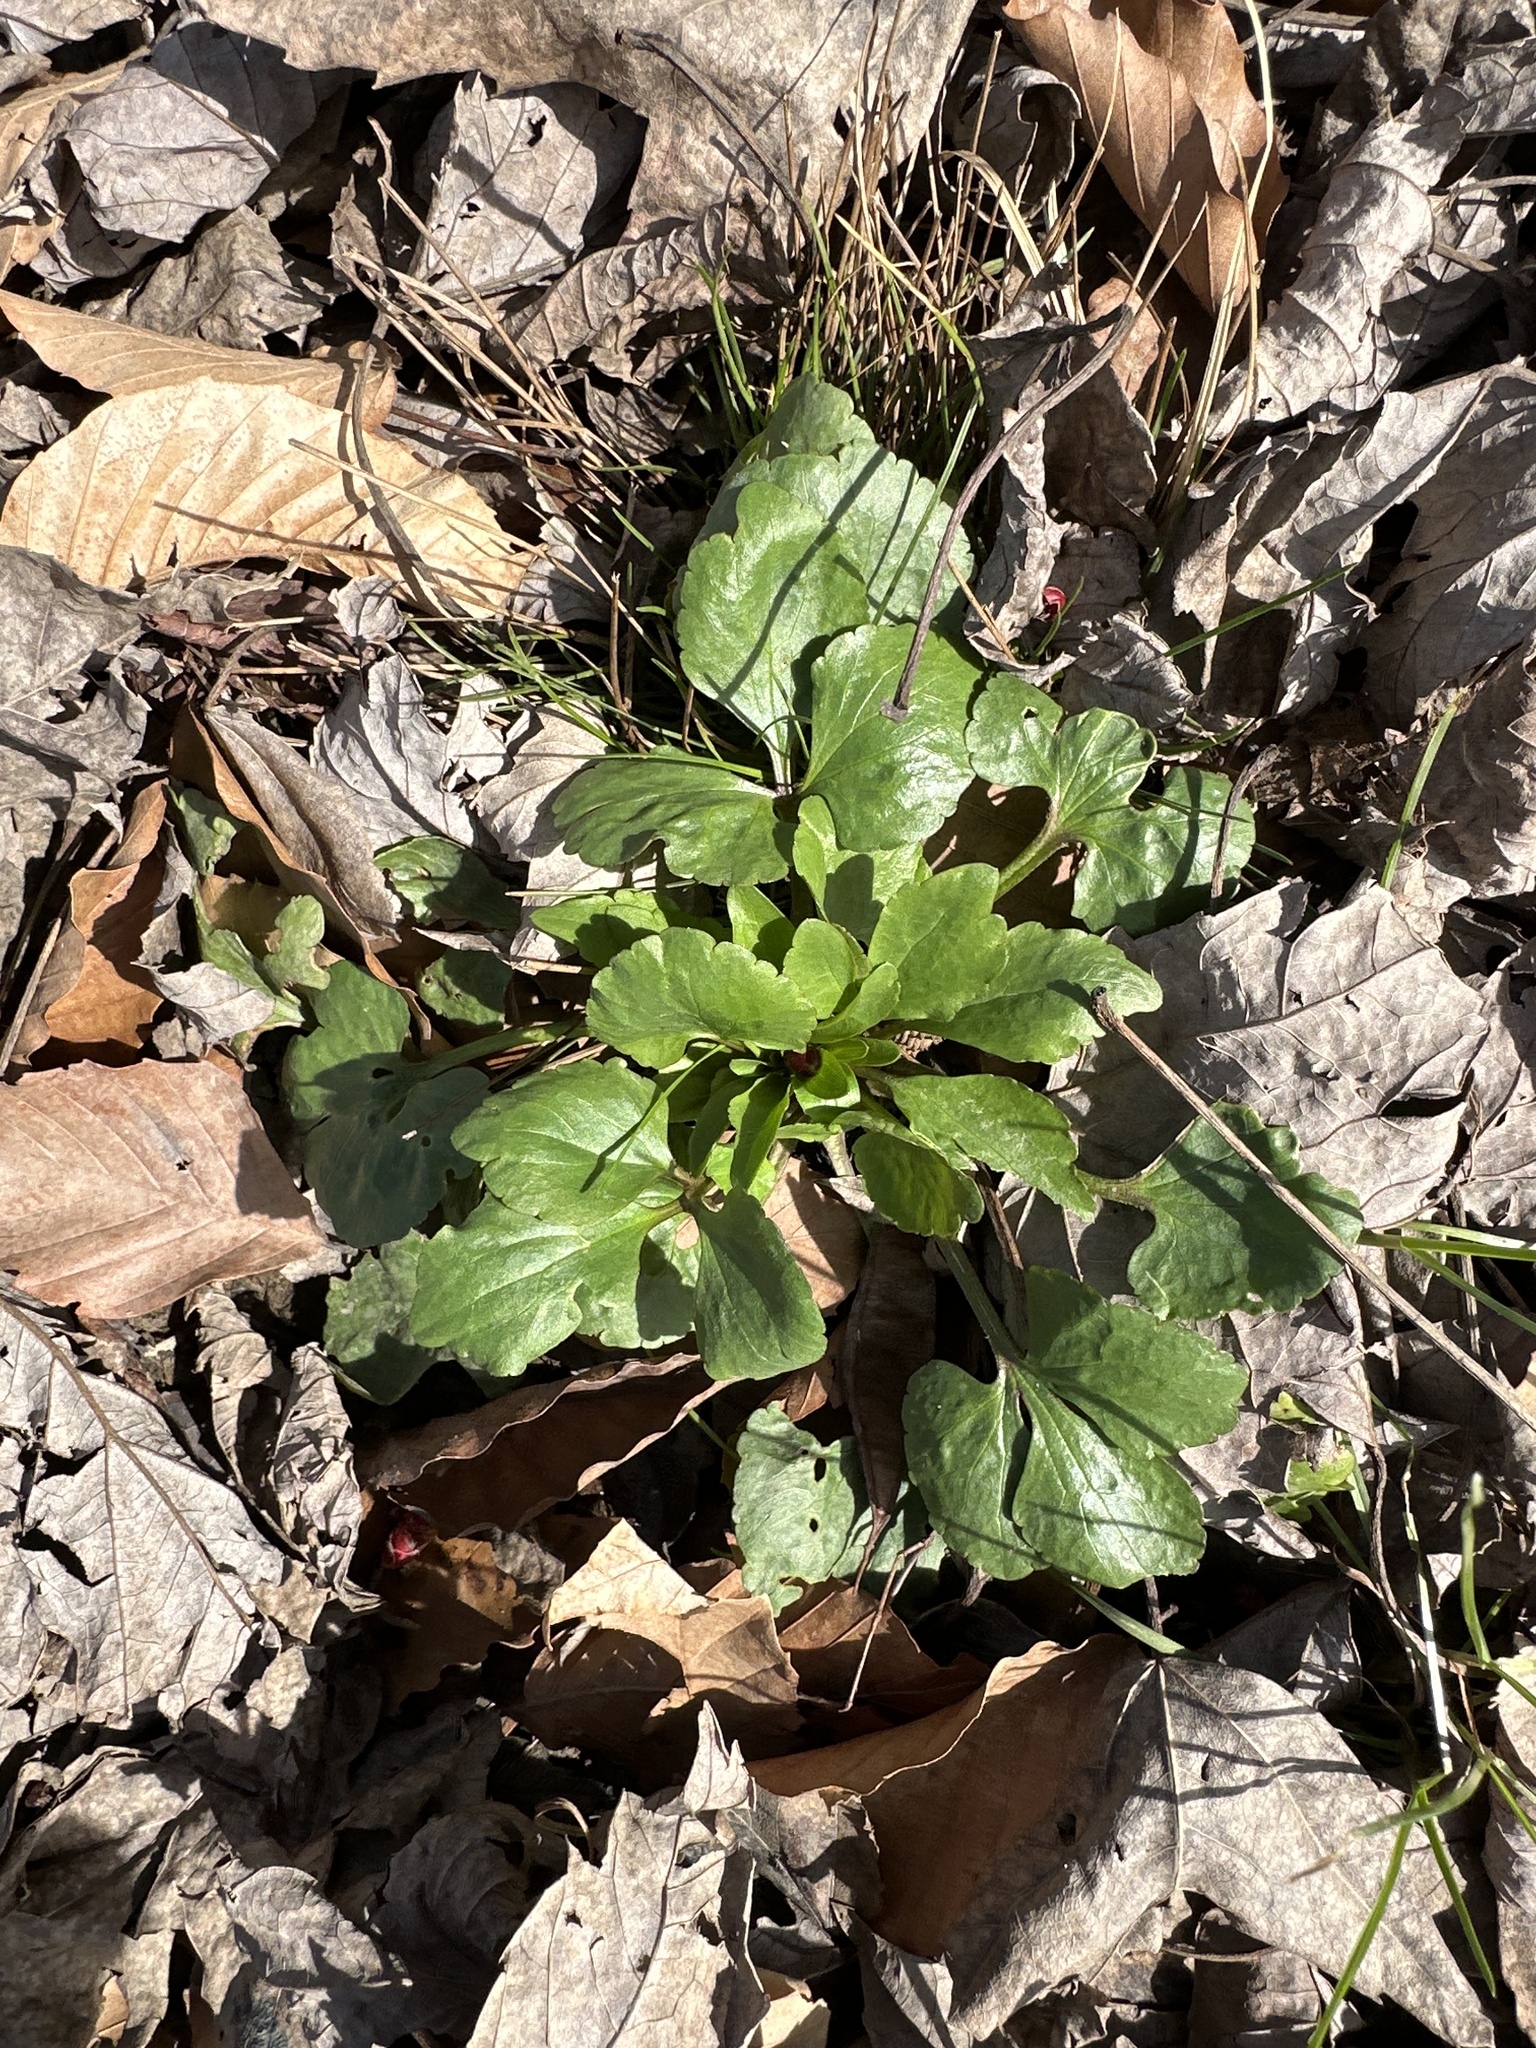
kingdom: Plantae
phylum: Tracheophyta
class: Magnoliopsida
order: Ranunculales
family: Ranunculaceae
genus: Ranunculus
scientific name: Ranunculus abortivus
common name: Early wood buttercup
